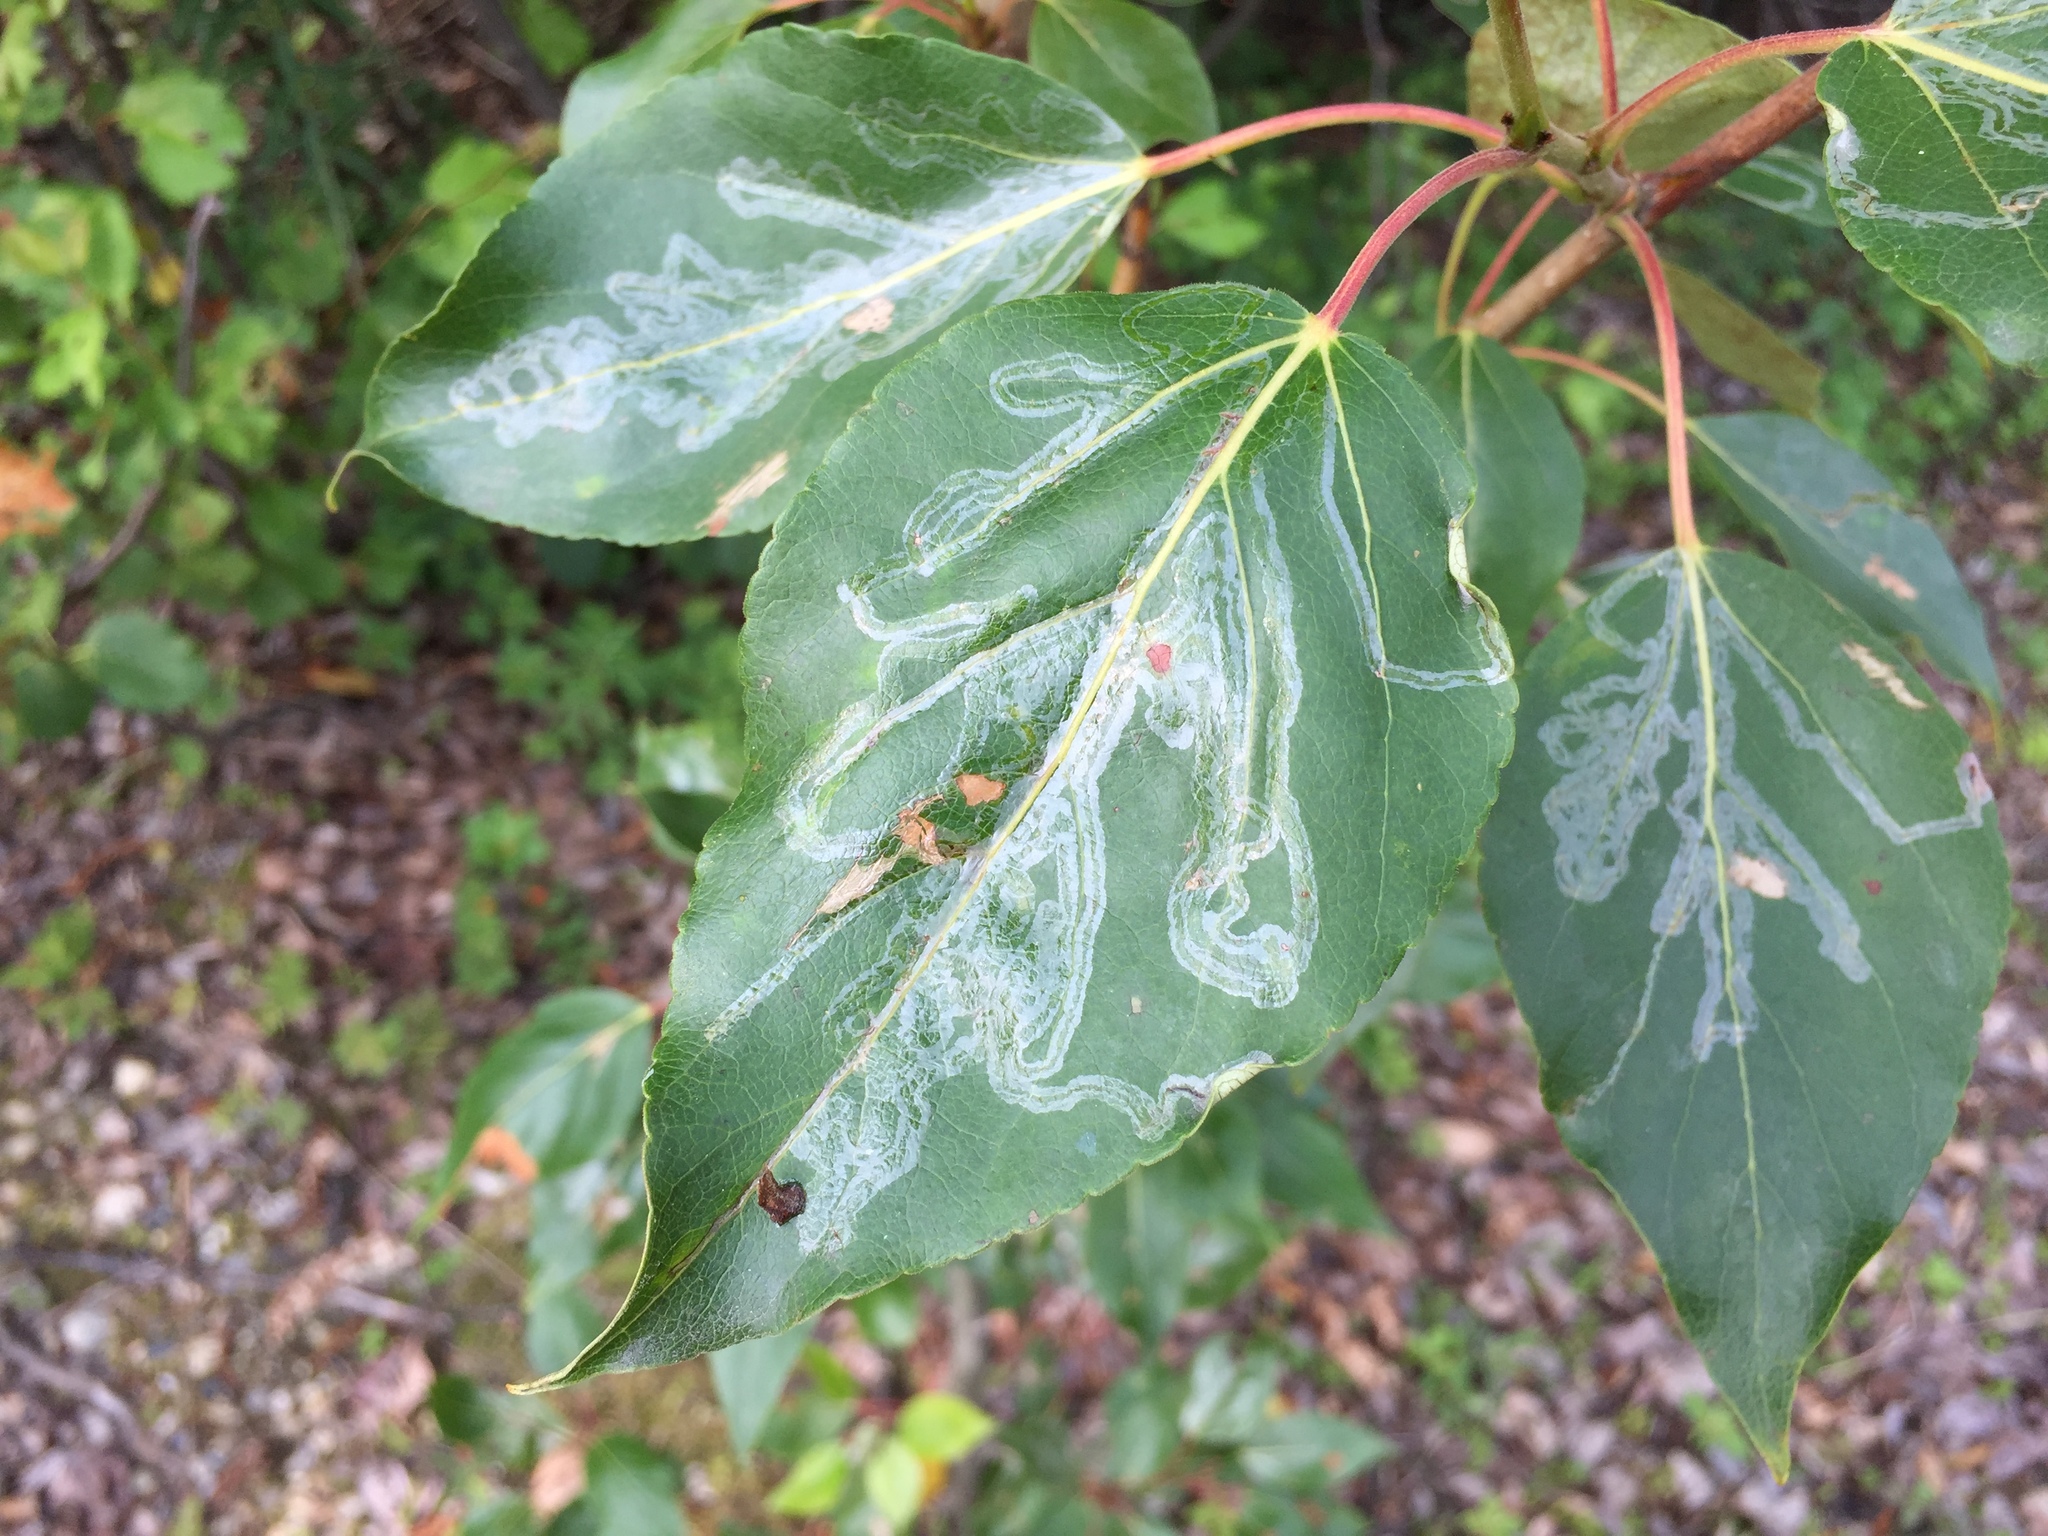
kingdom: Plantae
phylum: Tracheophyta
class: Magnoliopsida
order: Malpighiales
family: Salicaceae
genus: Populus
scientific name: Populus balsamifera
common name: Balsam poplar
